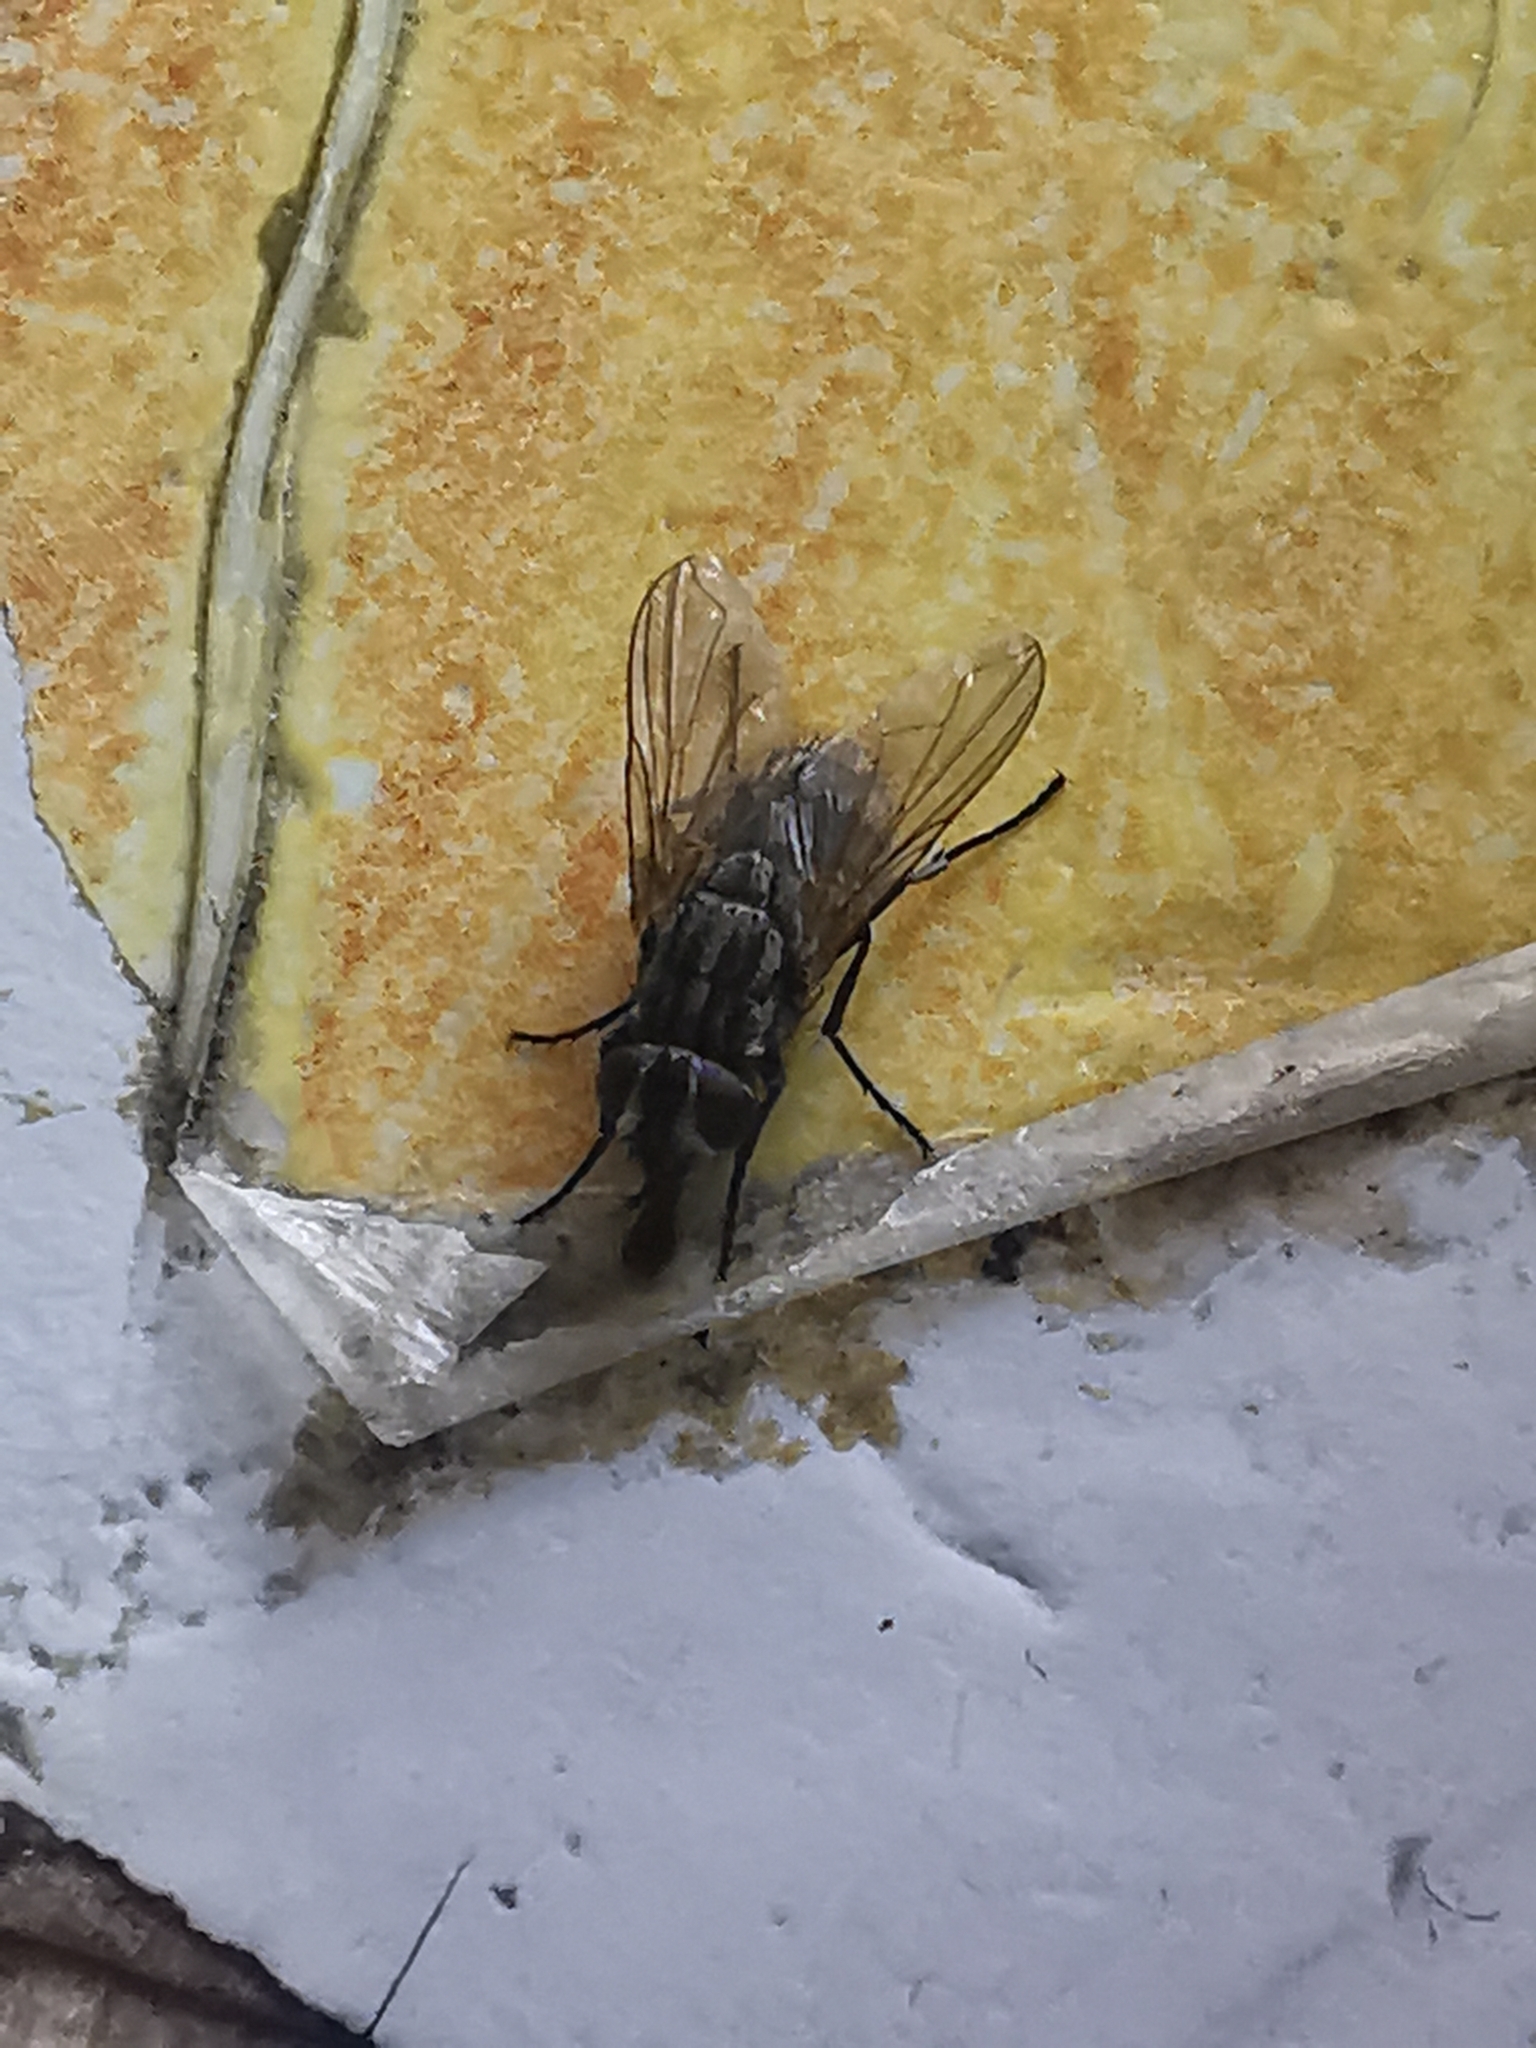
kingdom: Animalia
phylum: Arthropoda
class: Insecta
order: Diptera
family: Muscidae
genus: Musca
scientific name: Musca domestica
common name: House fly
